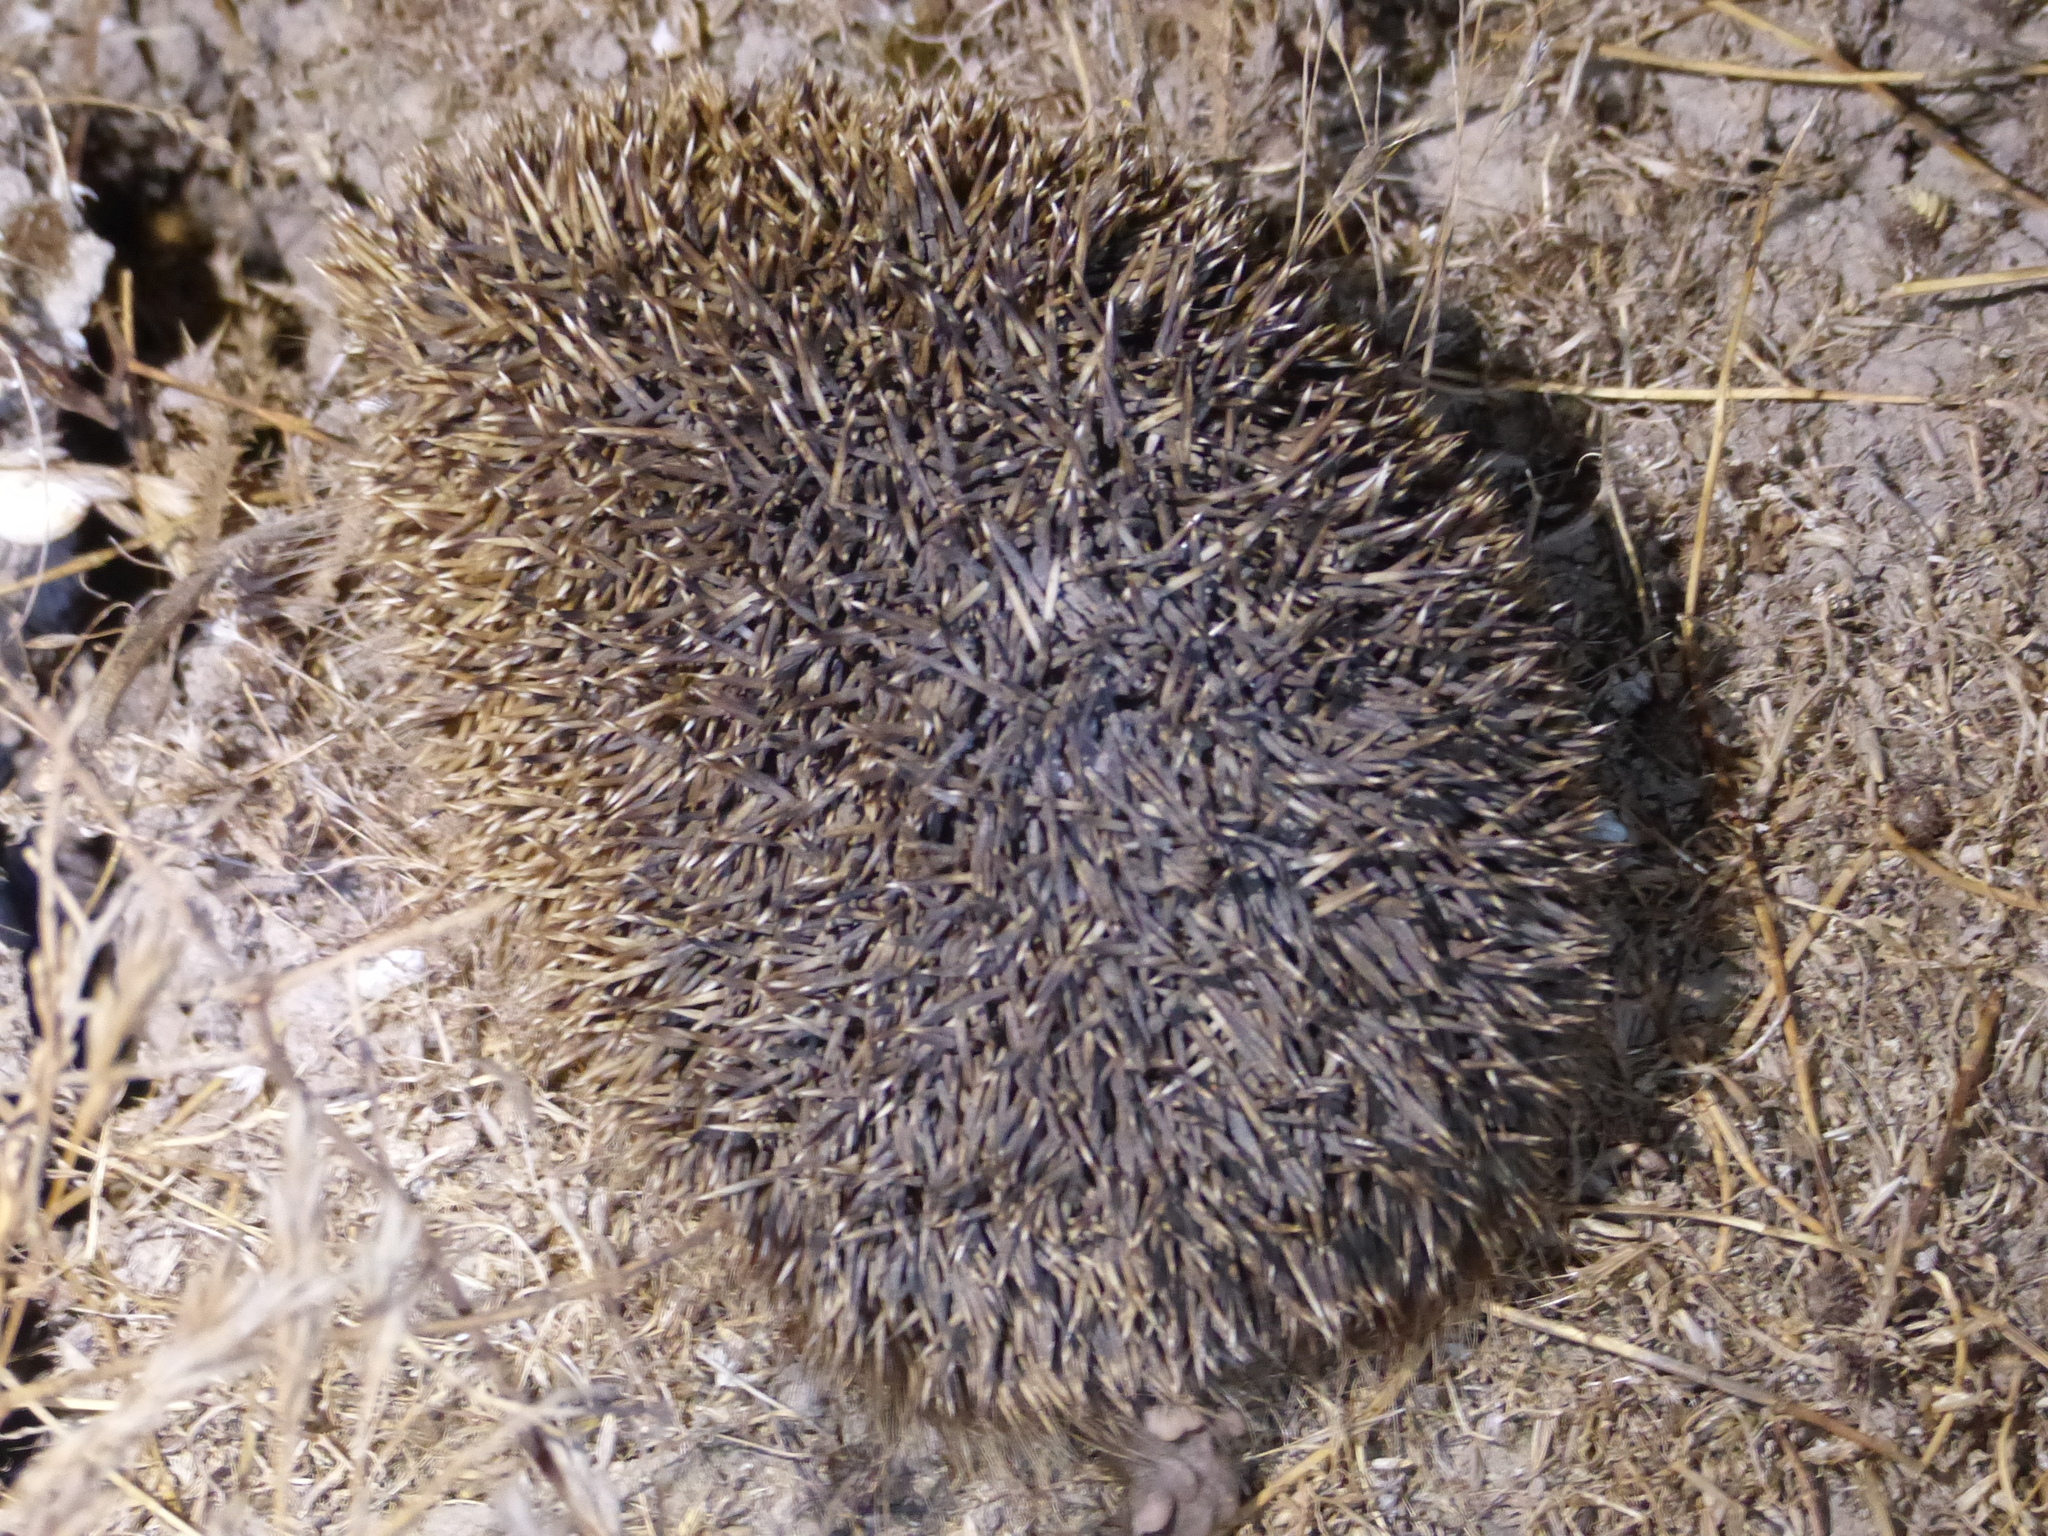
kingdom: Animalia
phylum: Chordata
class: Mammalia
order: Erinaceomorpha
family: Erinaceidae
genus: Erinaceus
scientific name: Erinaceus europaeus
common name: West european hedgehog
